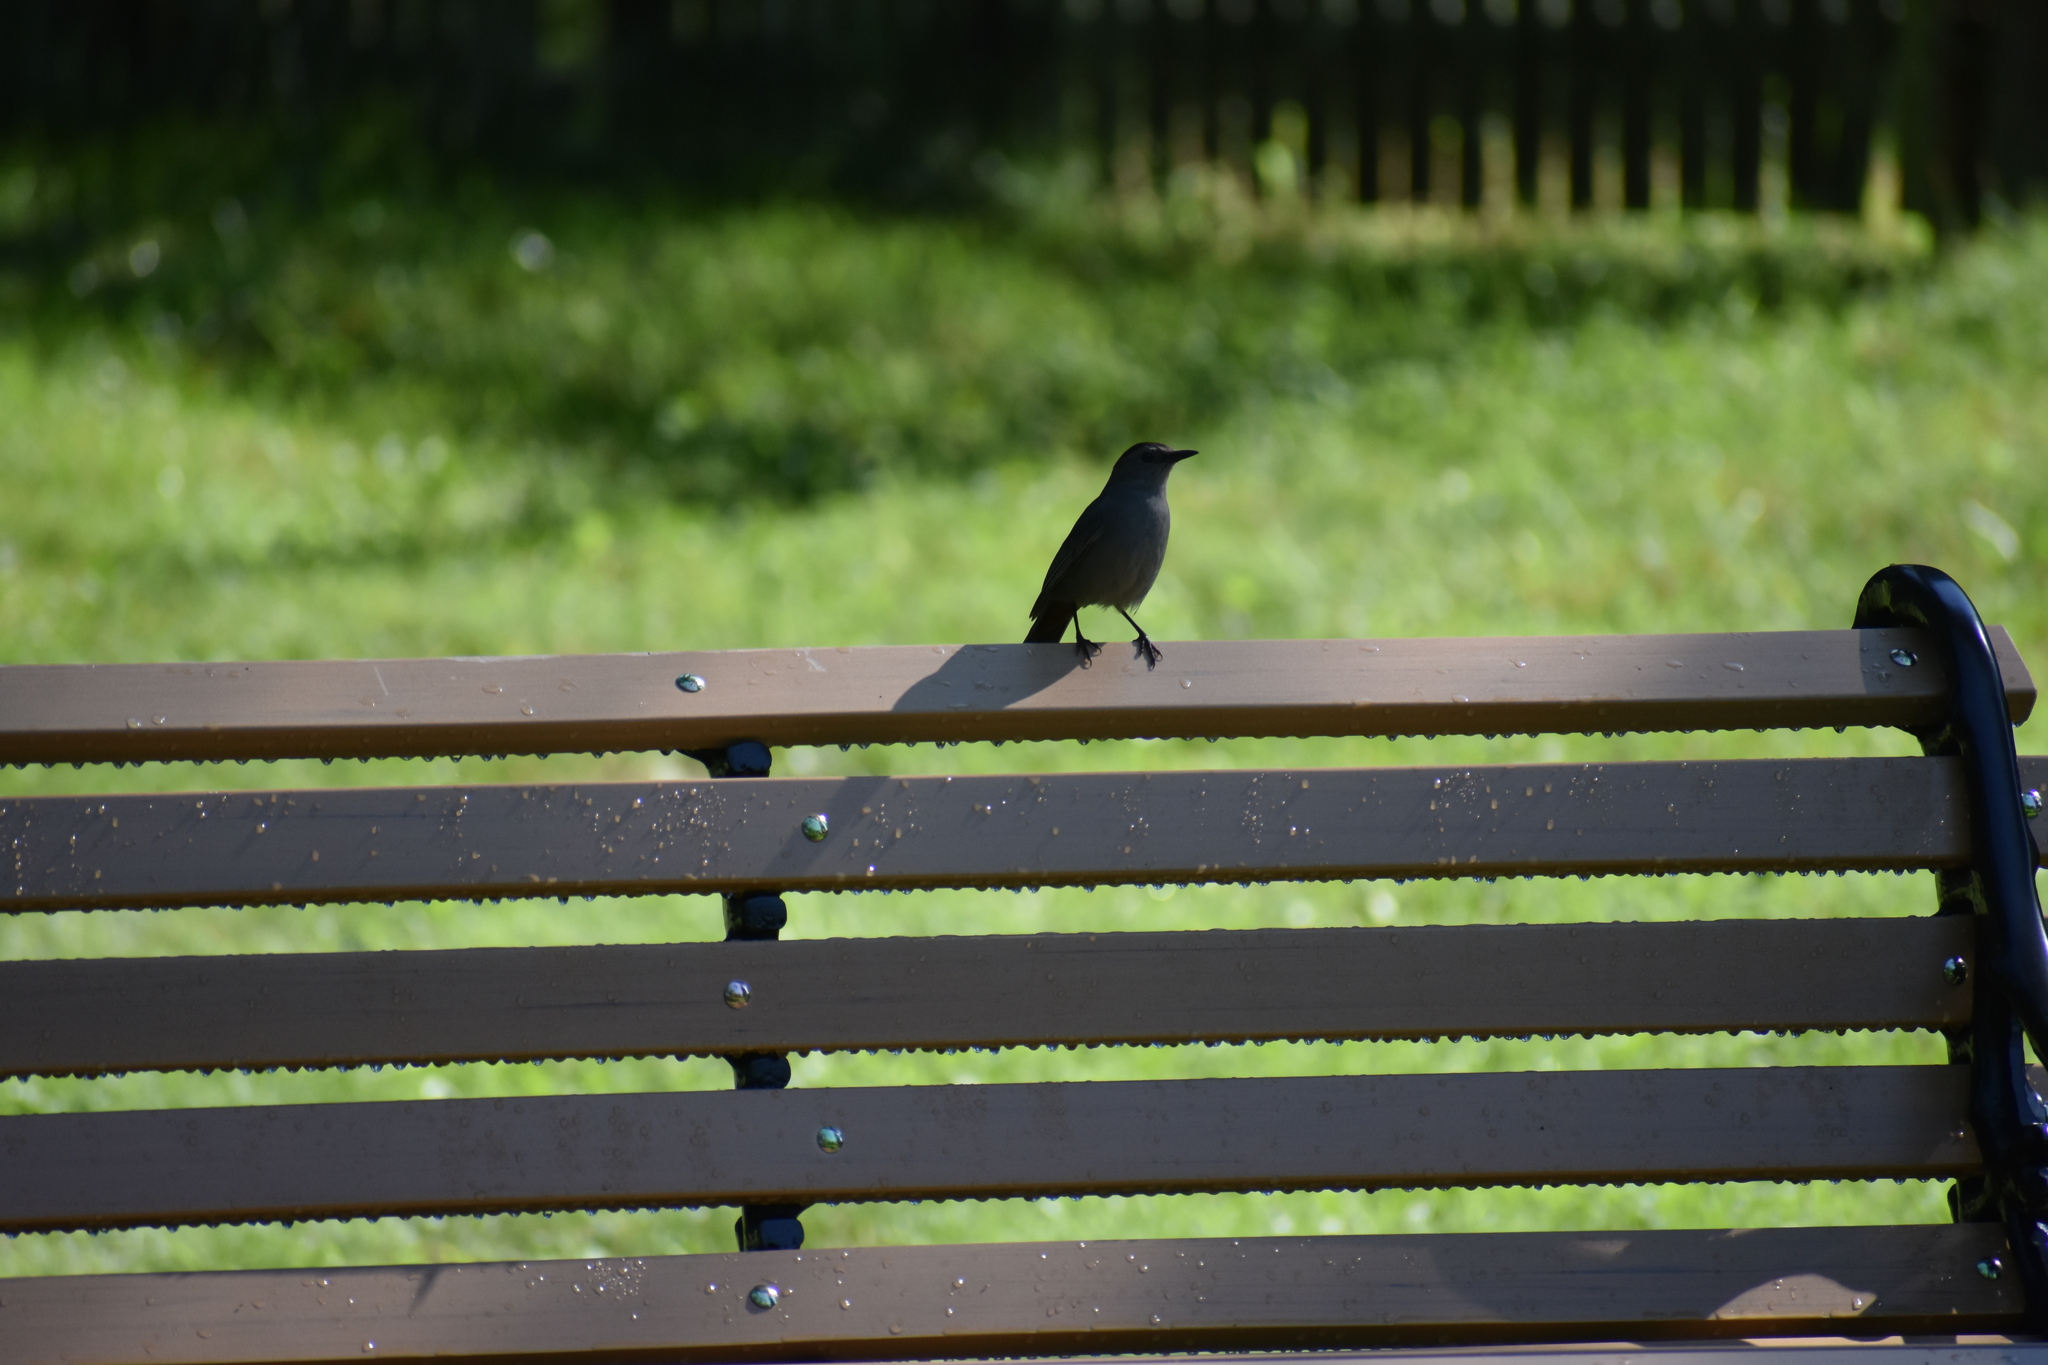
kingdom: Animalia
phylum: Chordata
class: Aves
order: Passeriformes
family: Mimidae
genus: Dumetella
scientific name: Dumetella carolinensis
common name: Gray catbird
